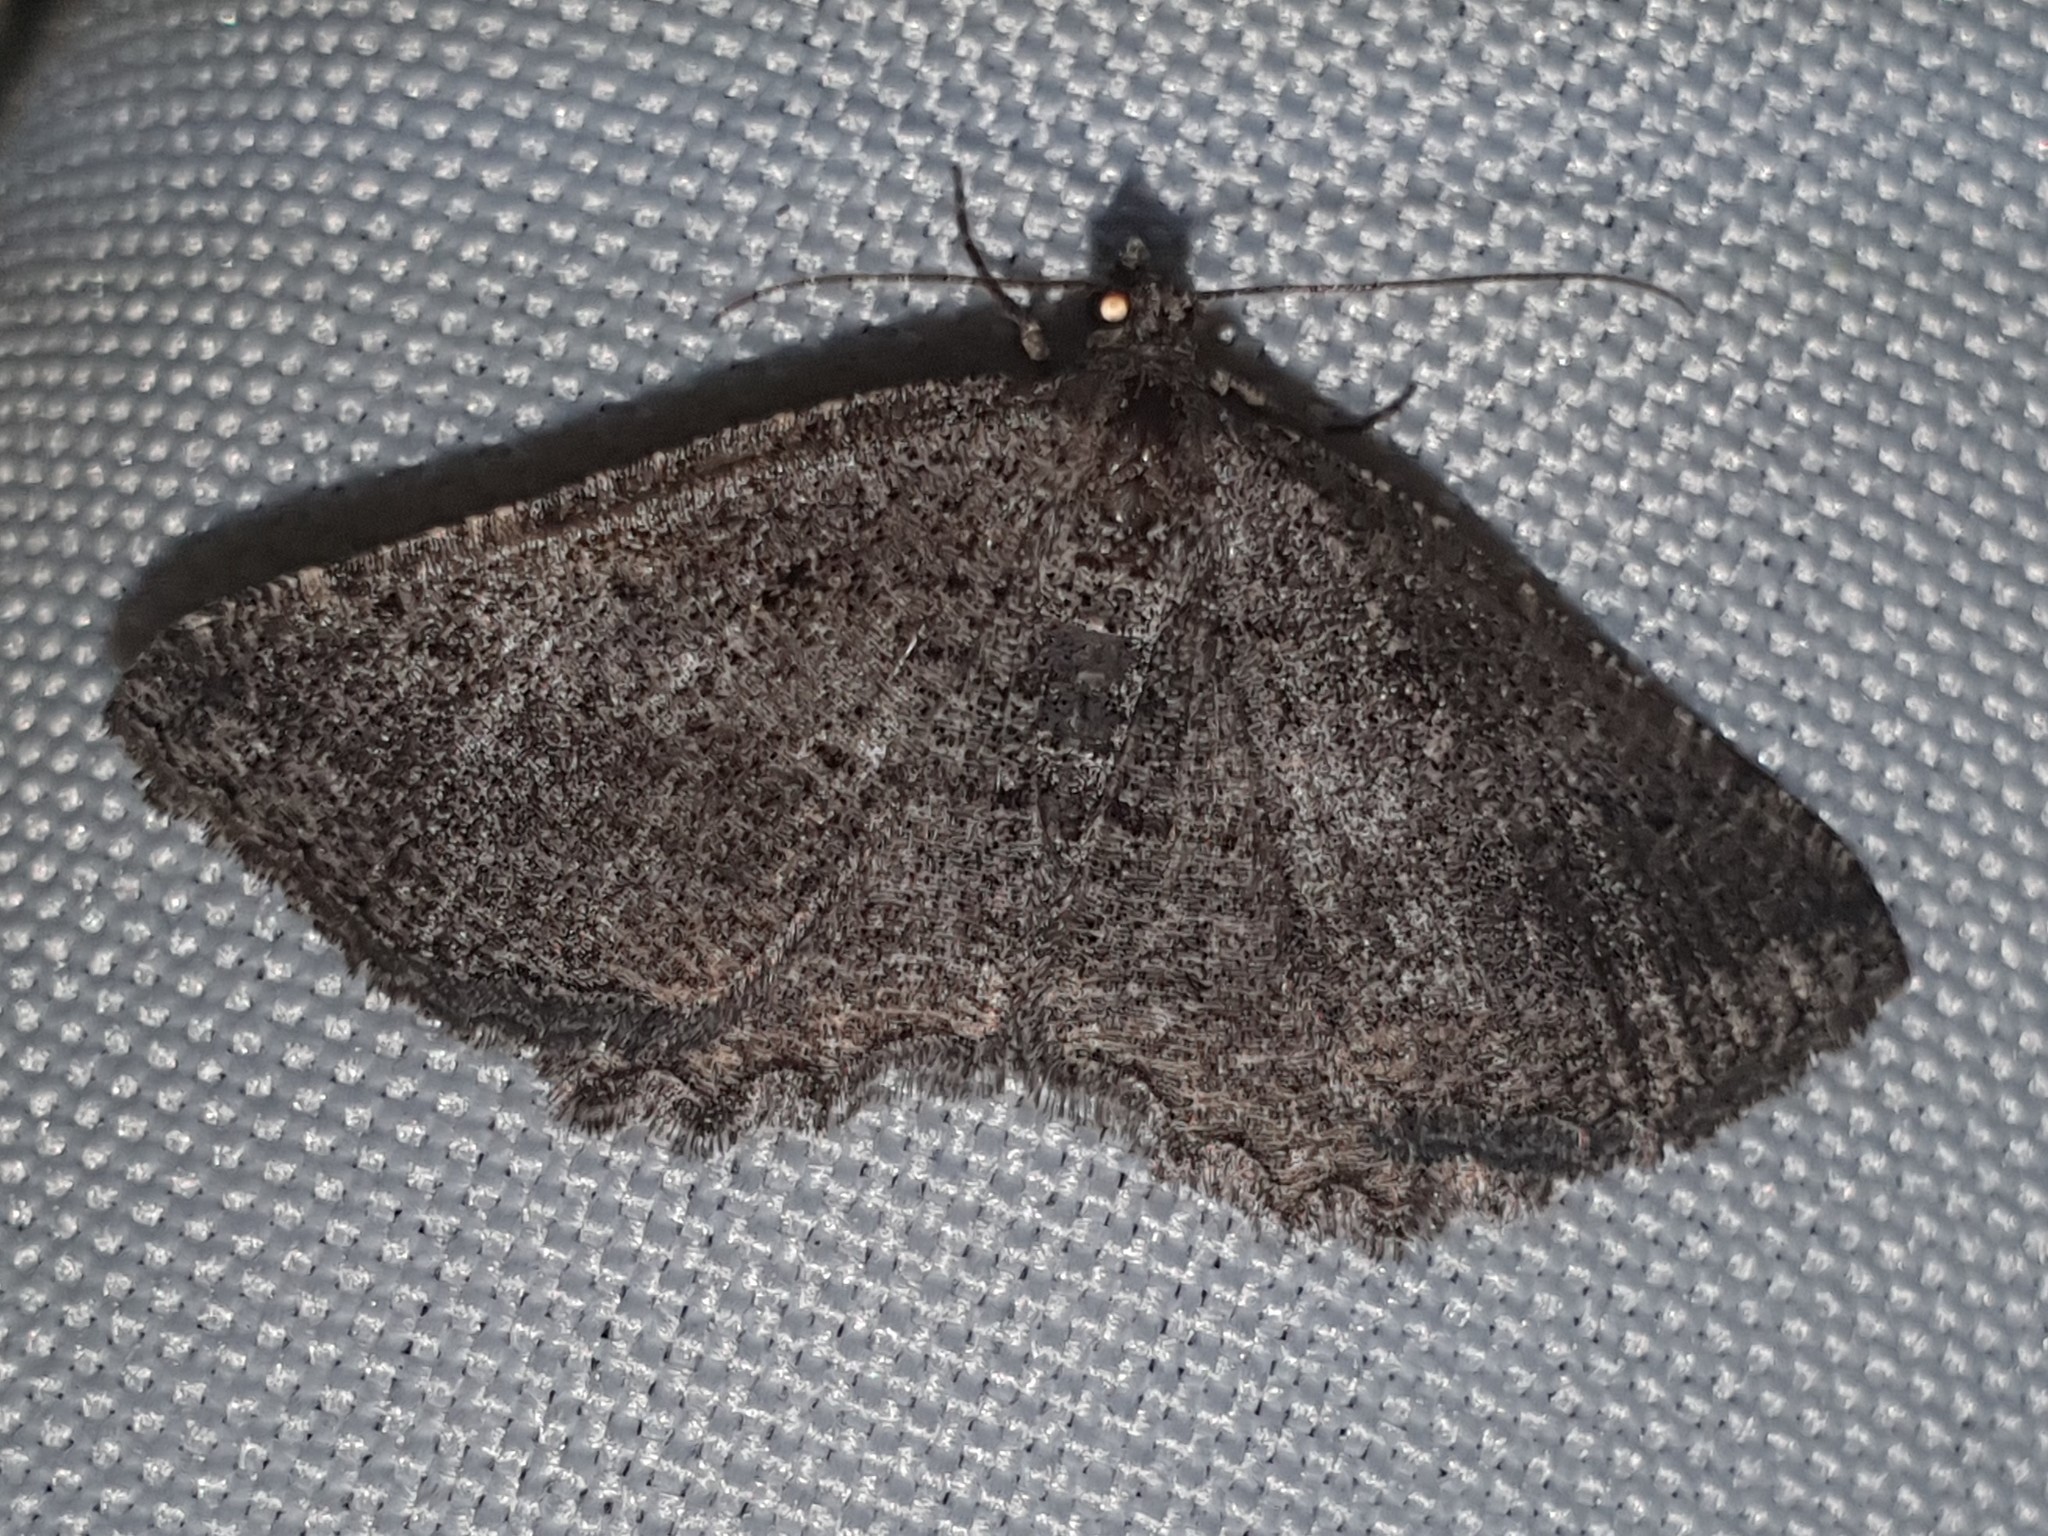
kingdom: Animalia
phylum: Arthropoda
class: Insecta
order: Lepidoptera
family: Geometridae
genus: Rhoptria
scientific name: Rhoptria asperaria
